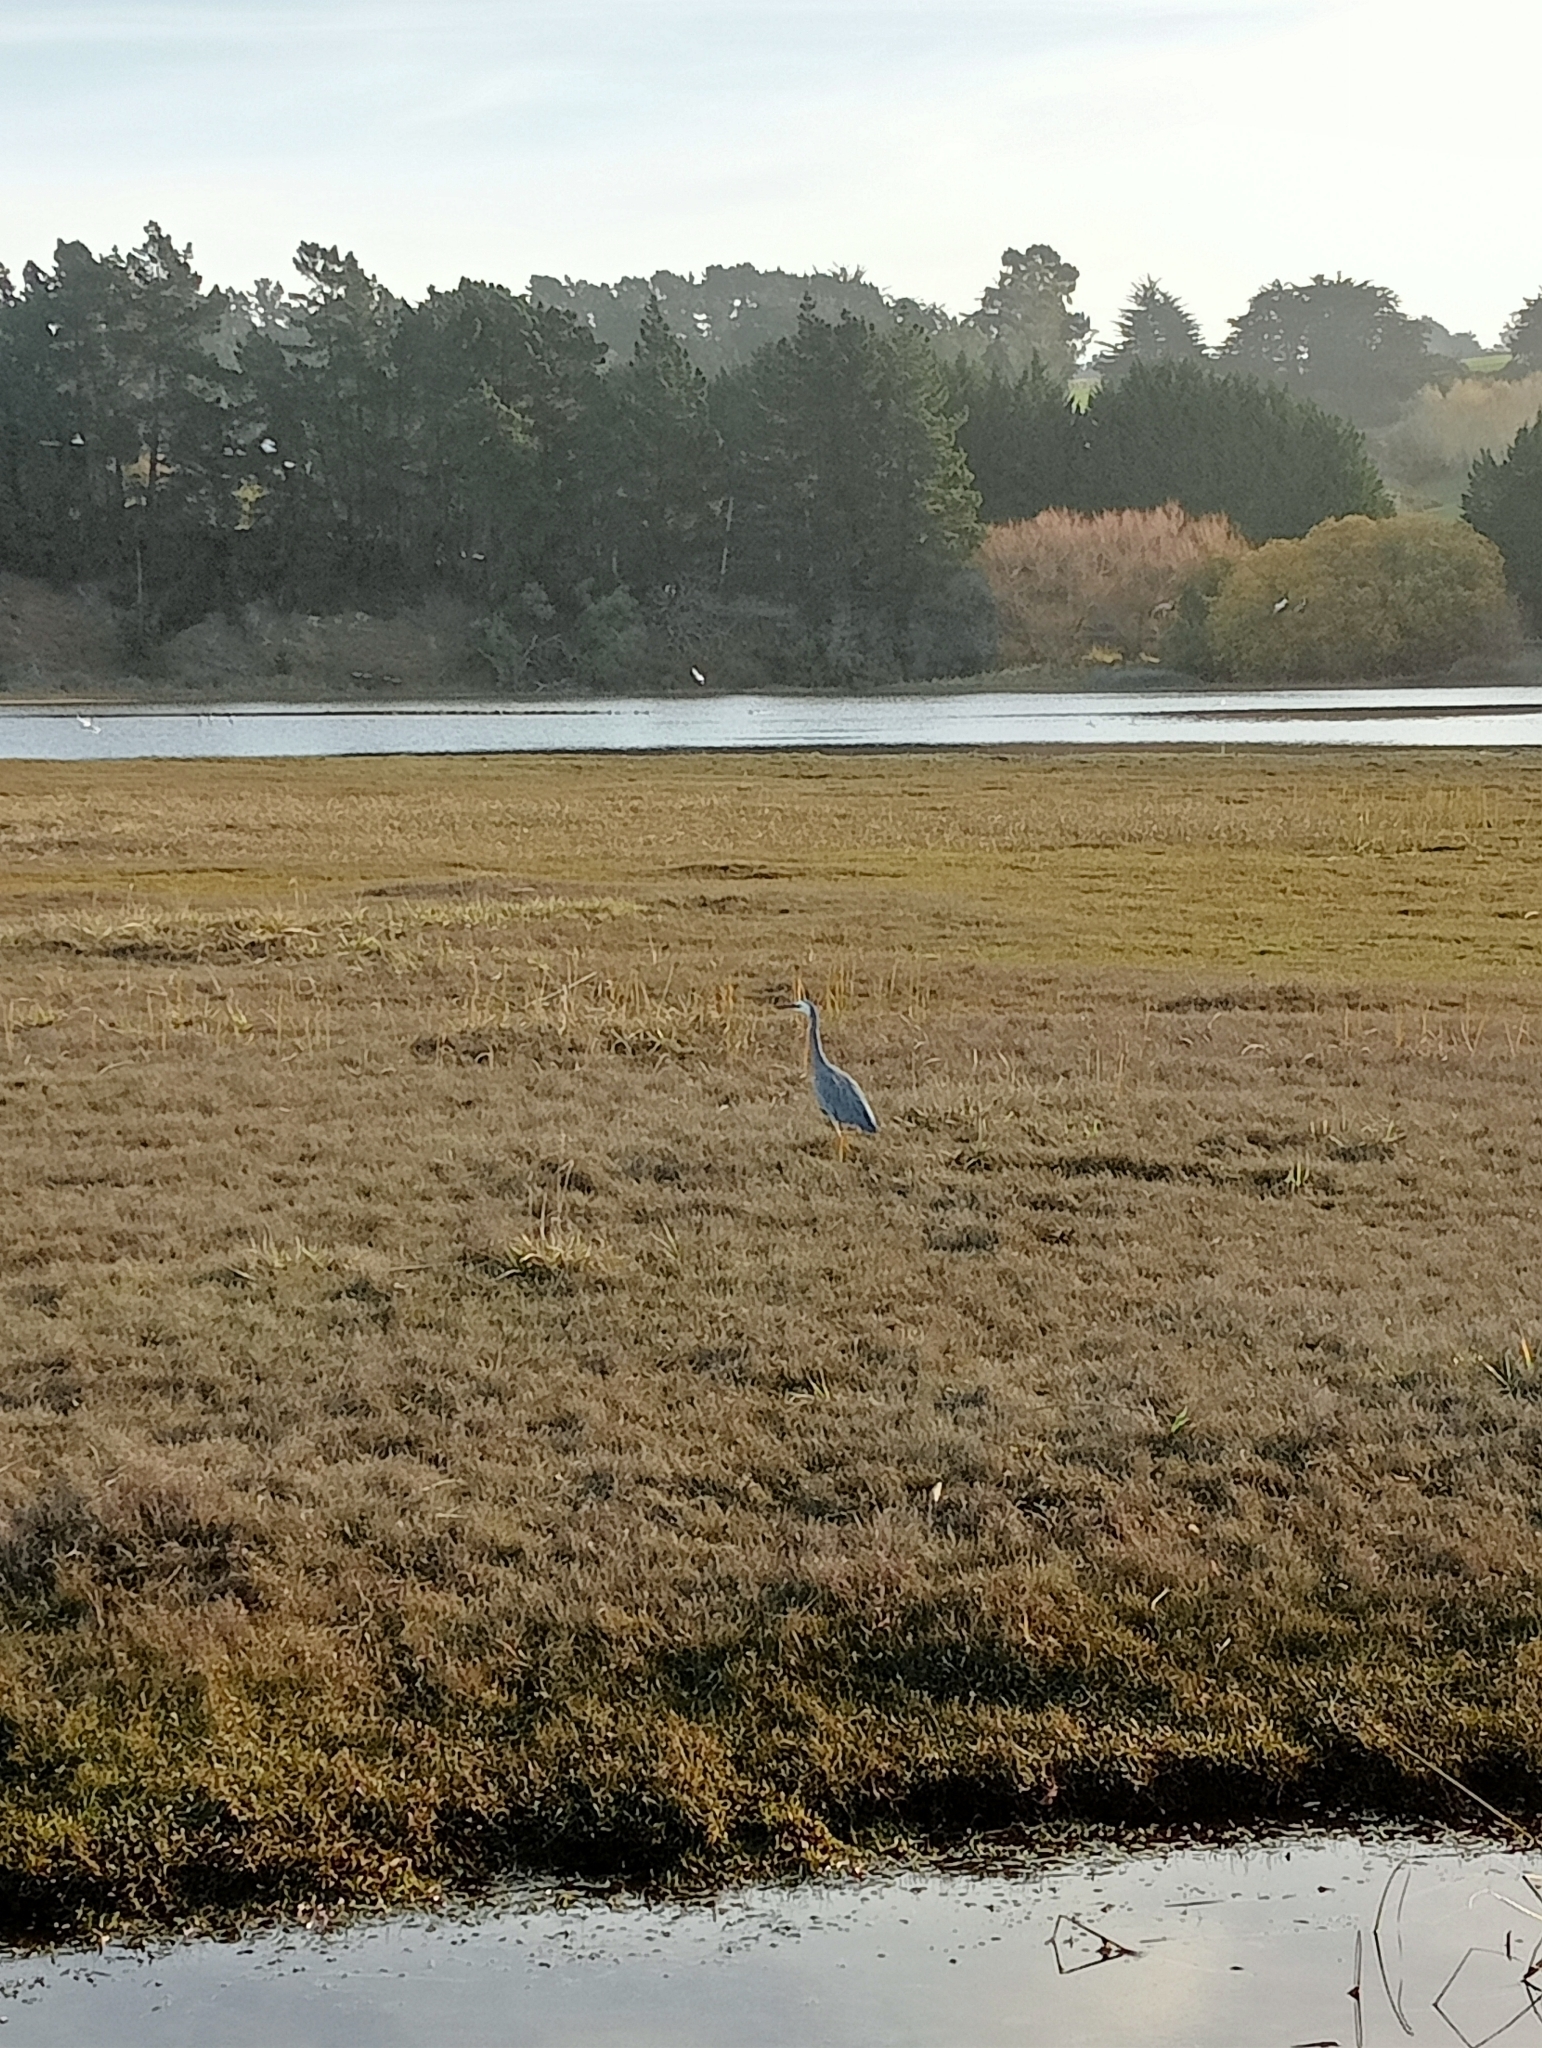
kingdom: Animalia
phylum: Chordata
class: Aves
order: Pelecaniformes
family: Ardeidae
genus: Egretta
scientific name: Egretta novaehollandiae
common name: White-faced heron
